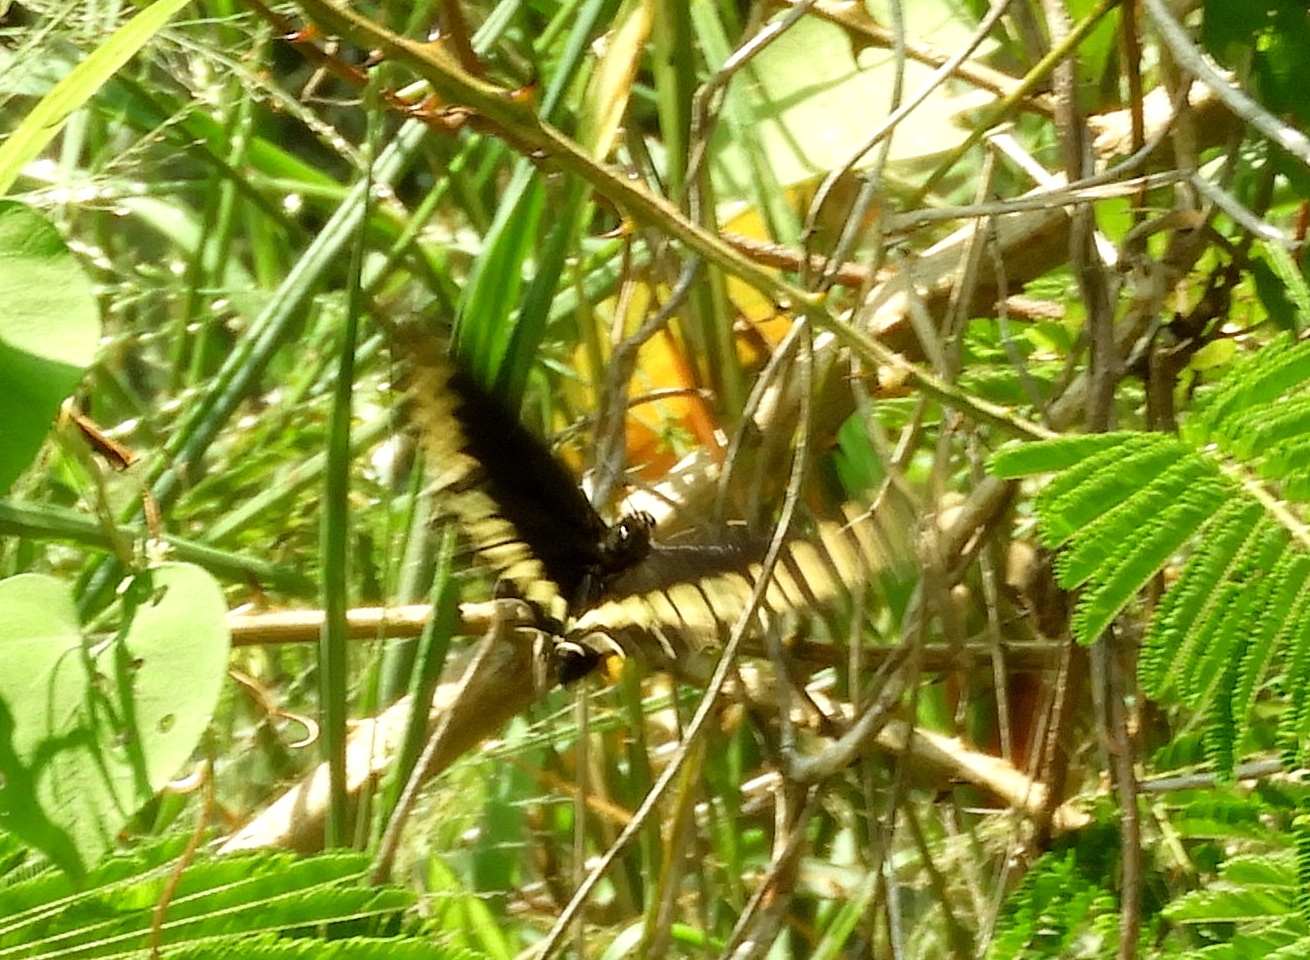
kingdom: Animalia
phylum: Arthropoda
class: Insecta
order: Lepidoptera
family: Papilionidae
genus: Battus
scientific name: Battus polydamas
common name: Polydamas swallowtail
